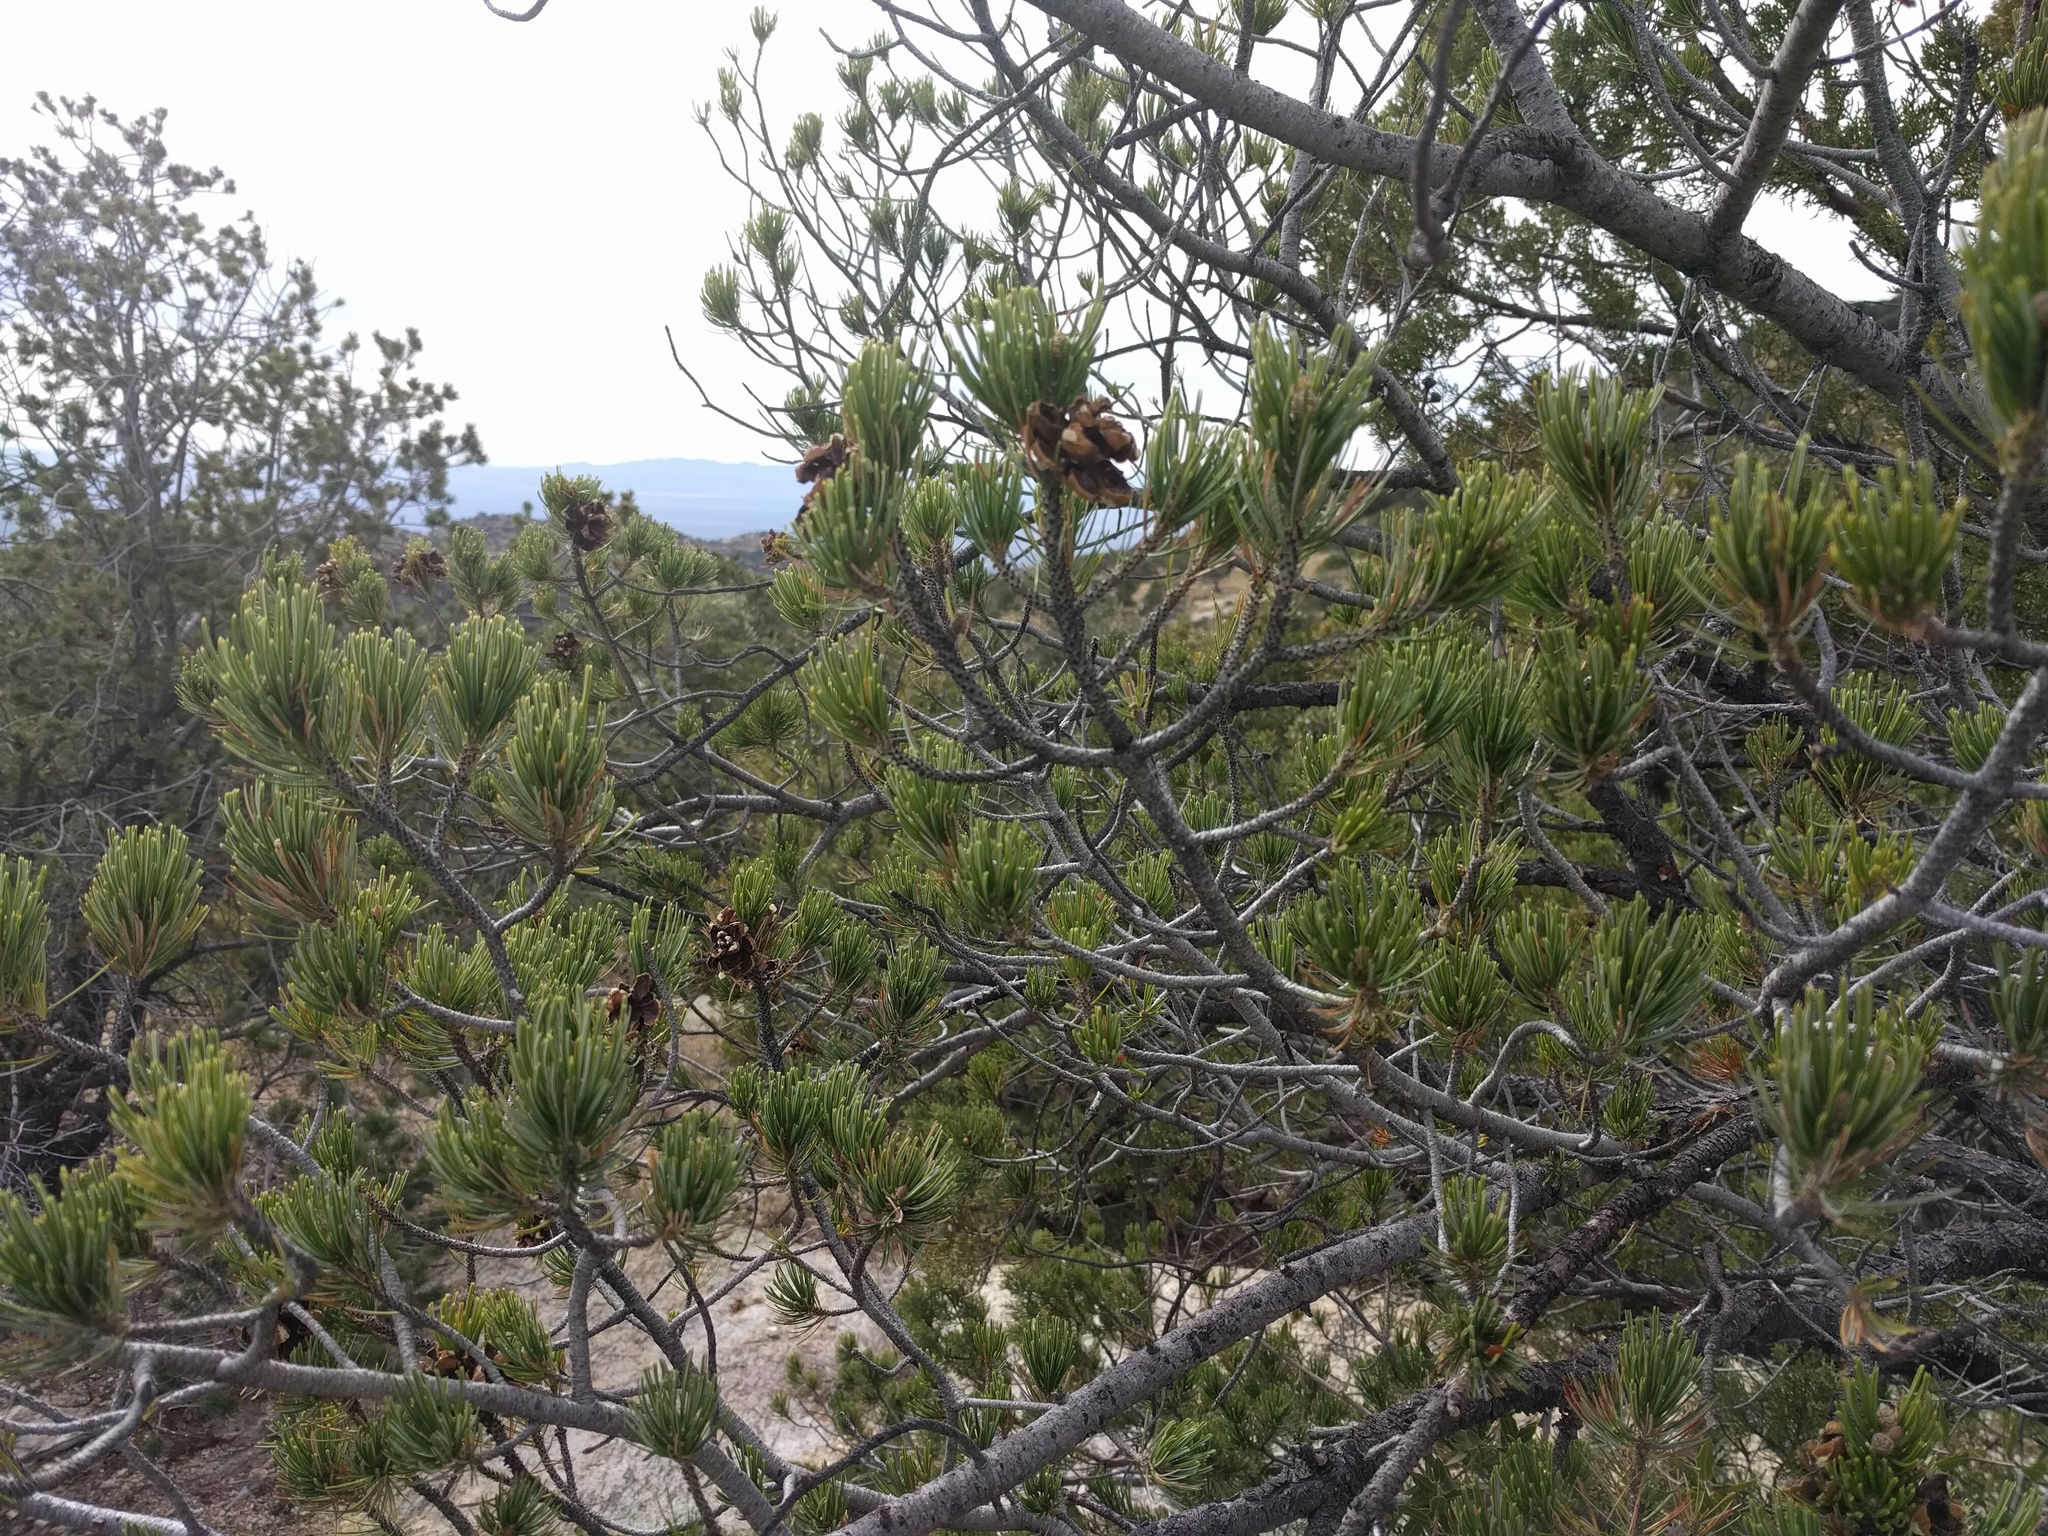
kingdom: Plantae
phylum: Tracheophyta
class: Pinopsida
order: Pinales
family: Pinaceae
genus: Pinus
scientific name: Pinus discolor
